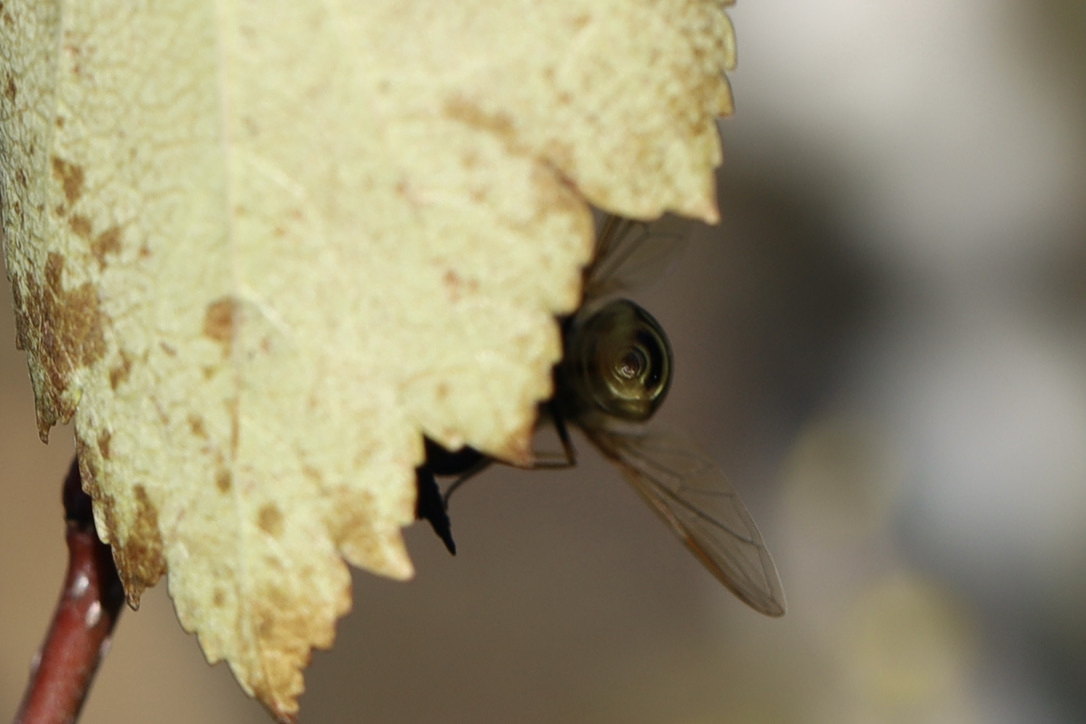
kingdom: Animalia
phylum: Arthropoda
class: Insecta
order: Diptera
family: Syrphidae
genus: Syrphus
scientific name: Syrphus torvus
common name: Hairy-eyed flower fly
